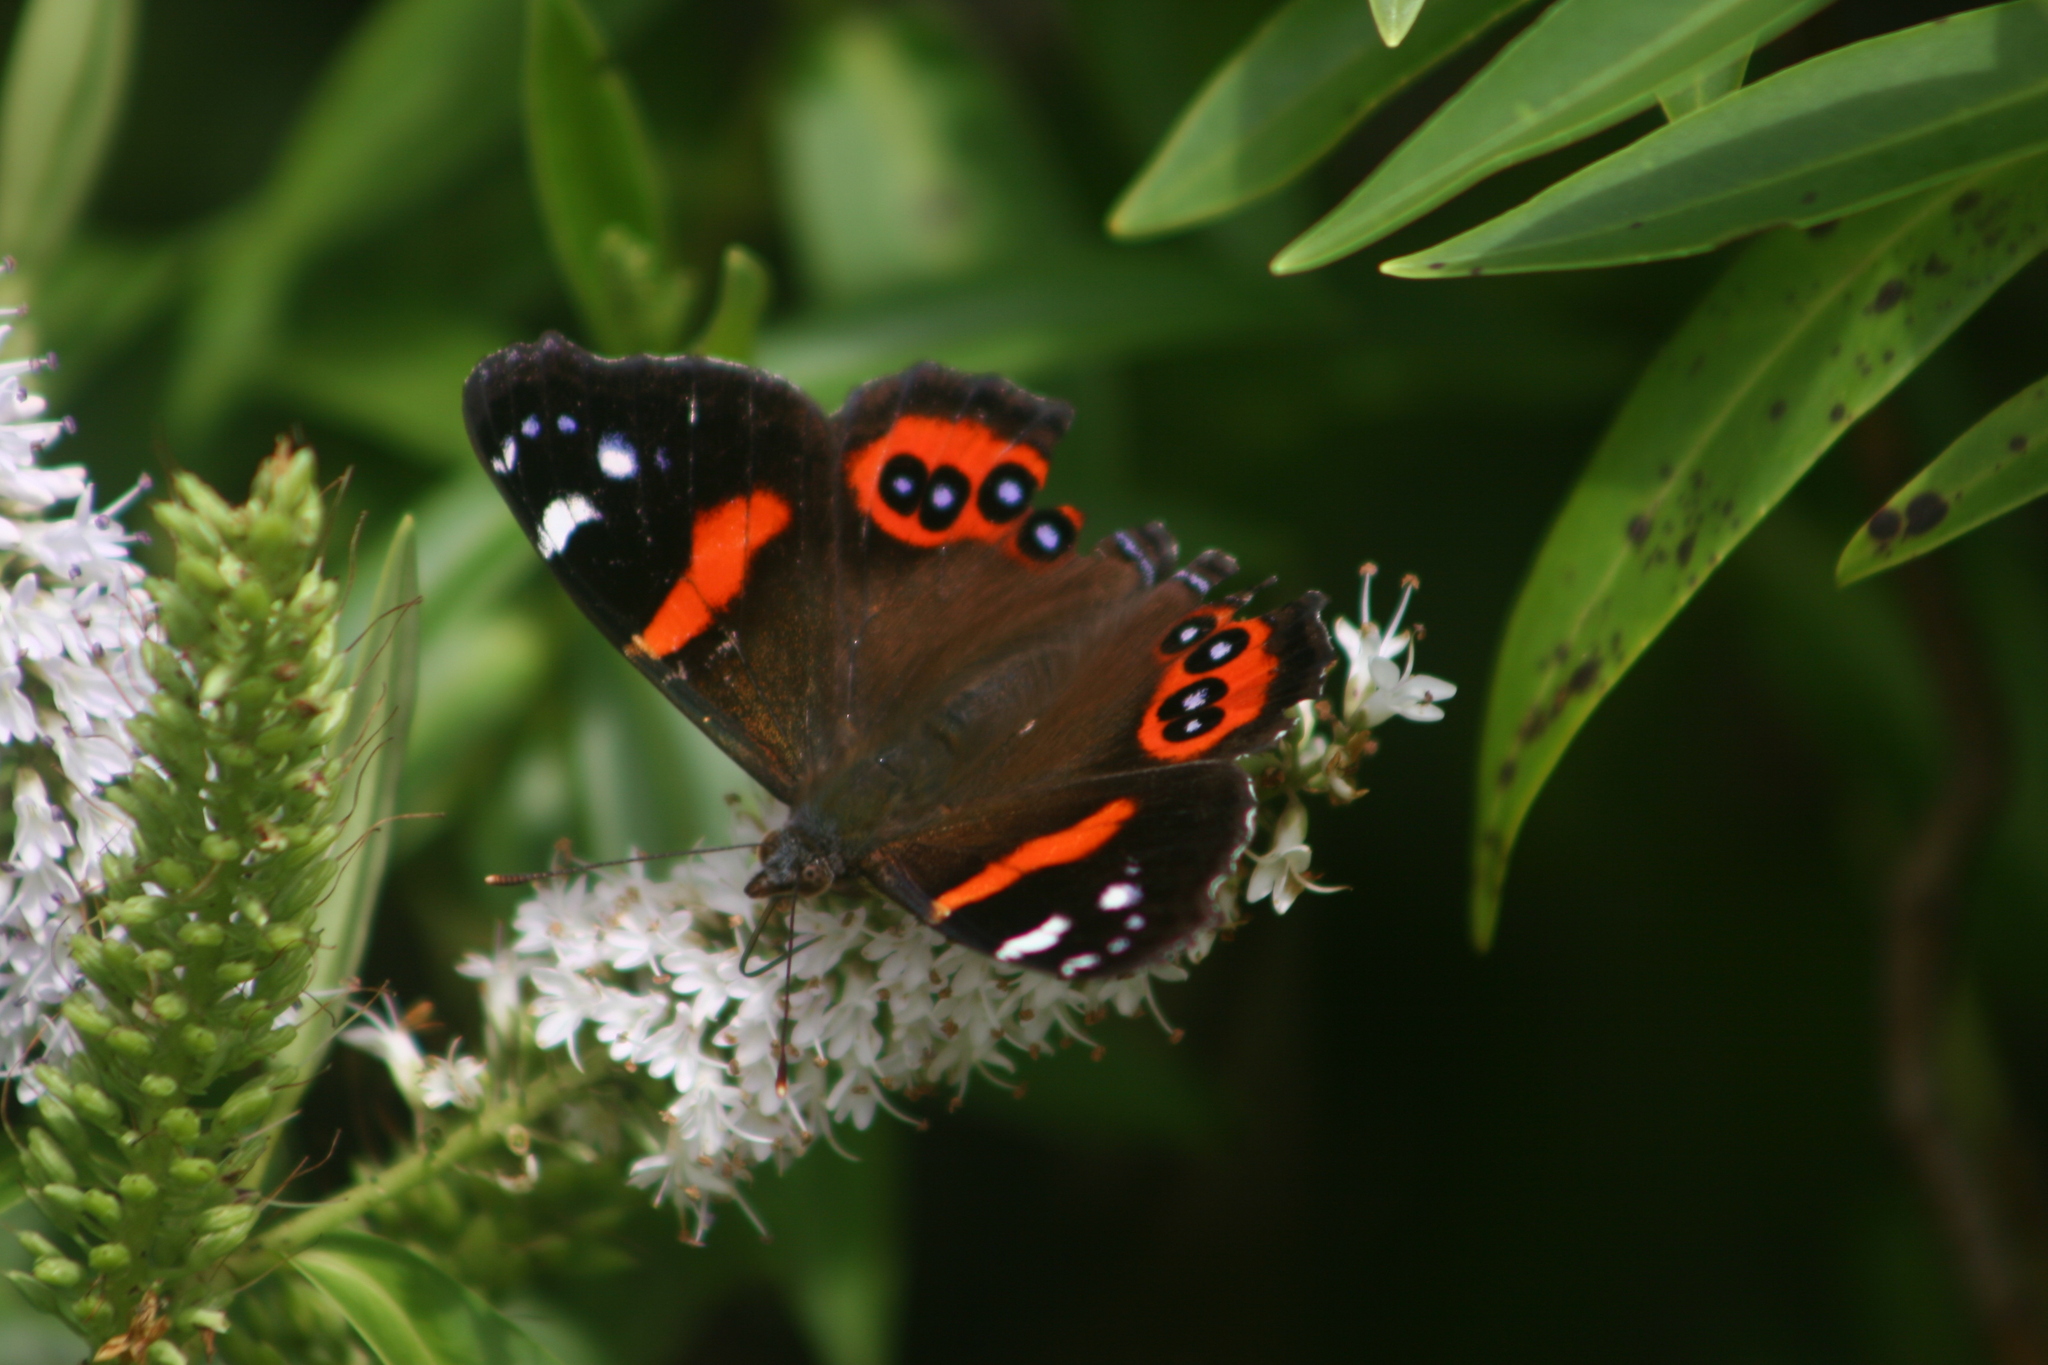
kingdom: Animalia
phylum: Arthropoda
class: Insecta
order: Lepidoptera
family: Nymphalidae
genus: Vanessa
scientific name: Vanessa gonerilla
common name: New zealand red admiral
